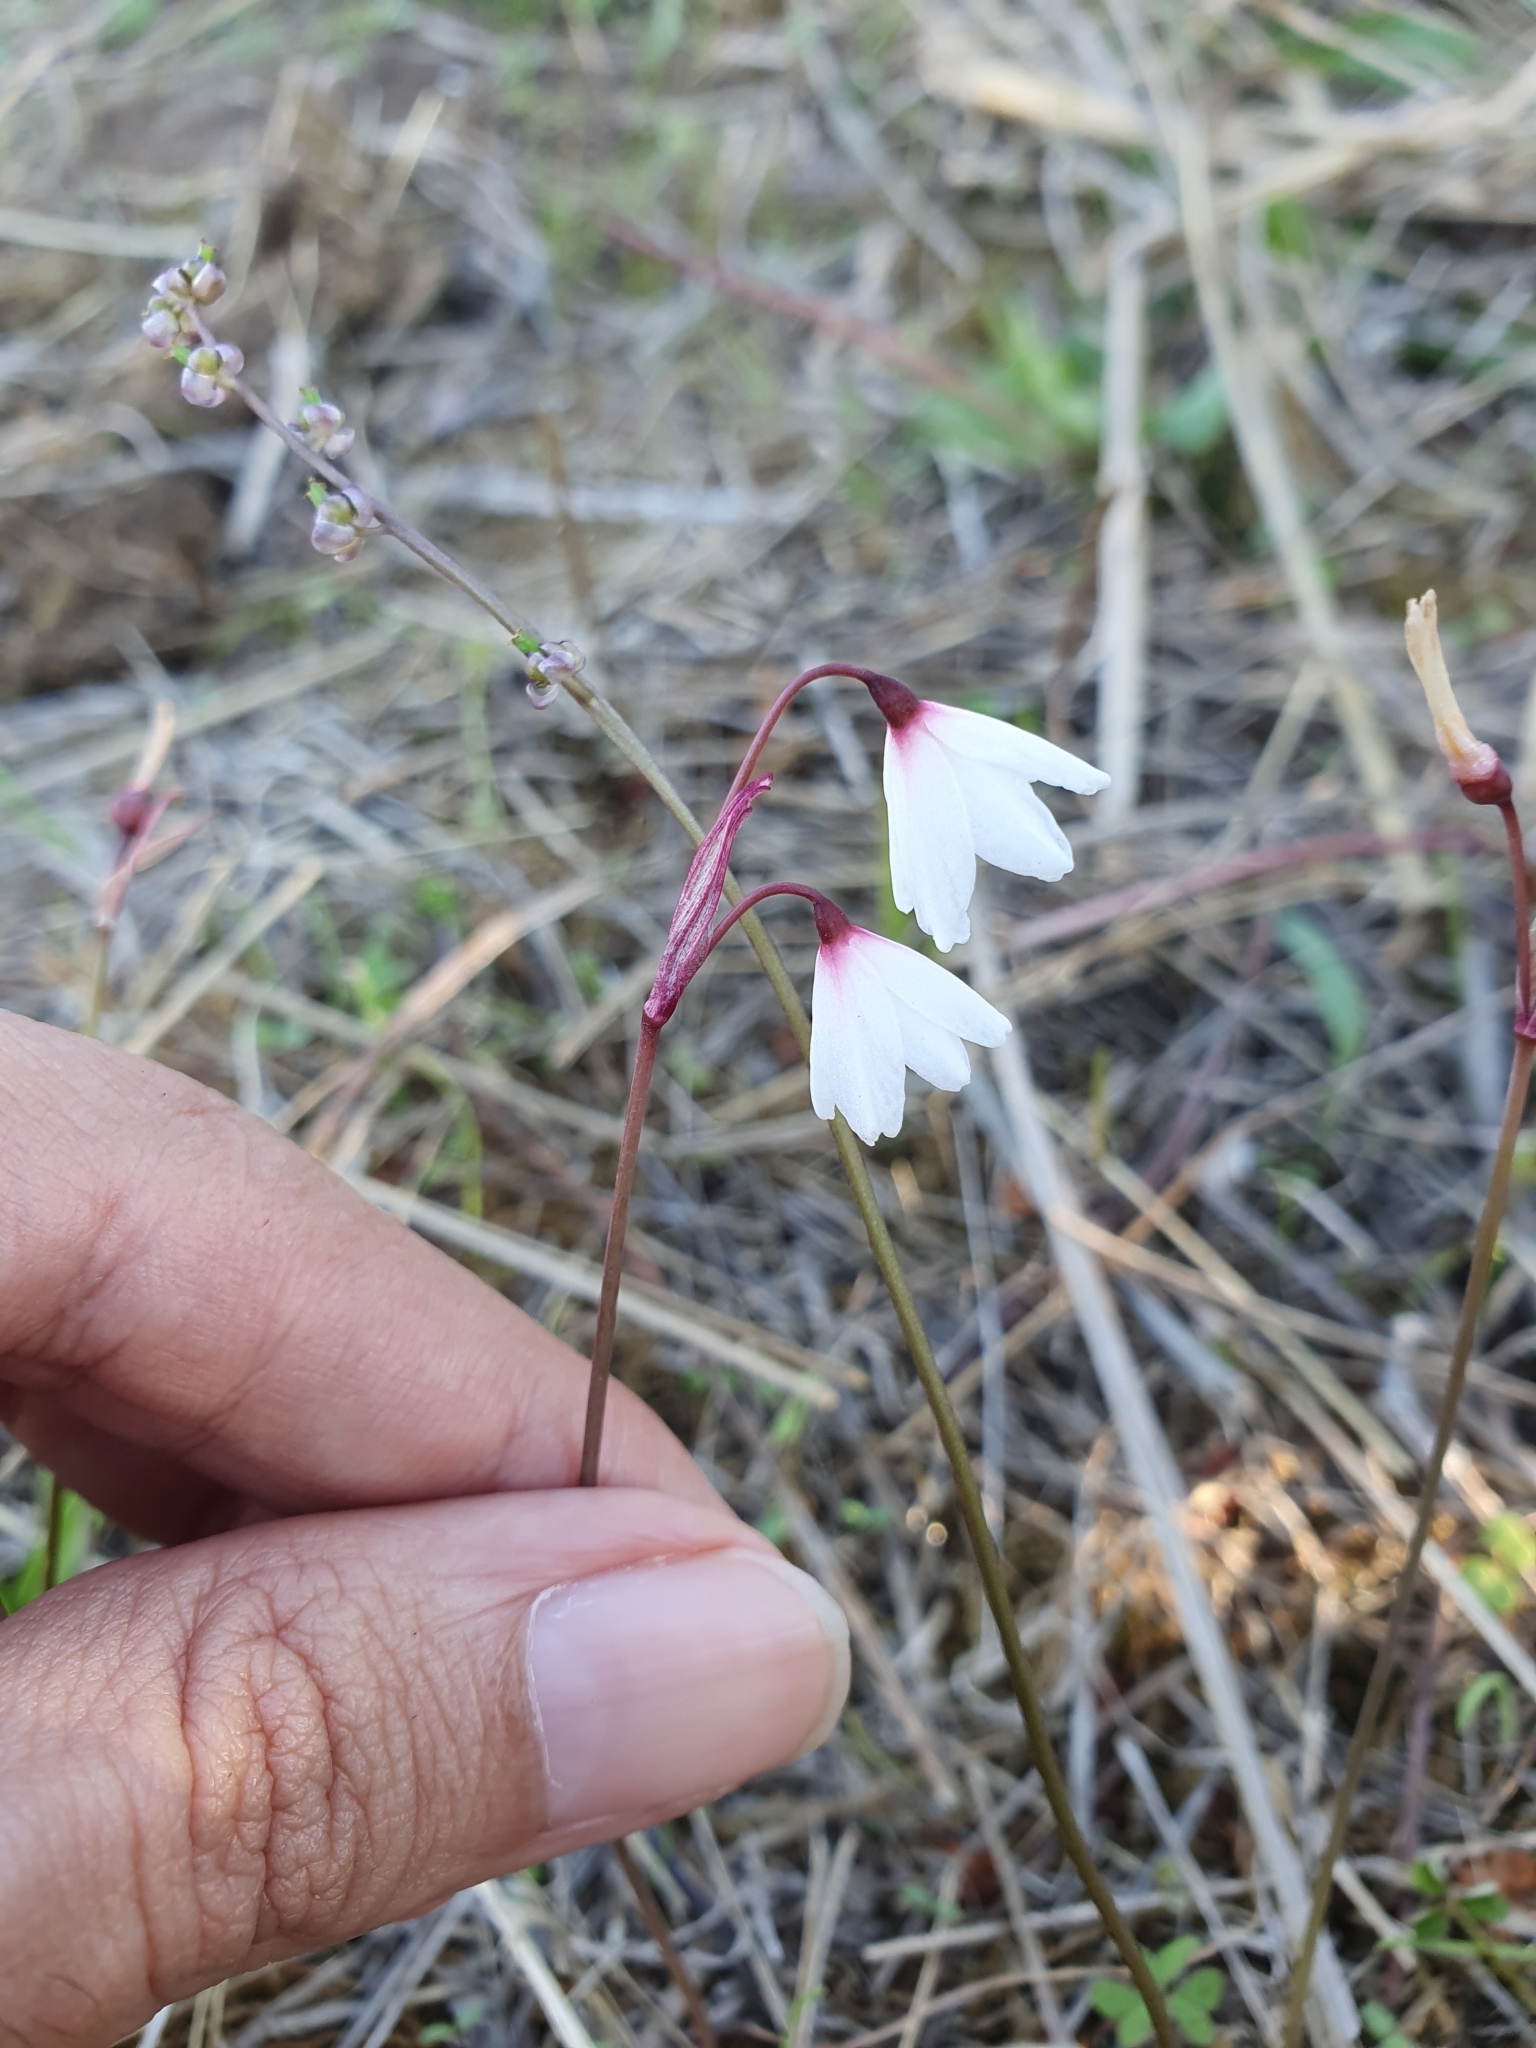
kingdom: Plantae
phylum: Tracheophyta
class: Liliopsida
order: Asparagales
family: Amaryllidaceae
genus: Acis
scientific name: Acis autumnalis
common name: Autumn snowflake
